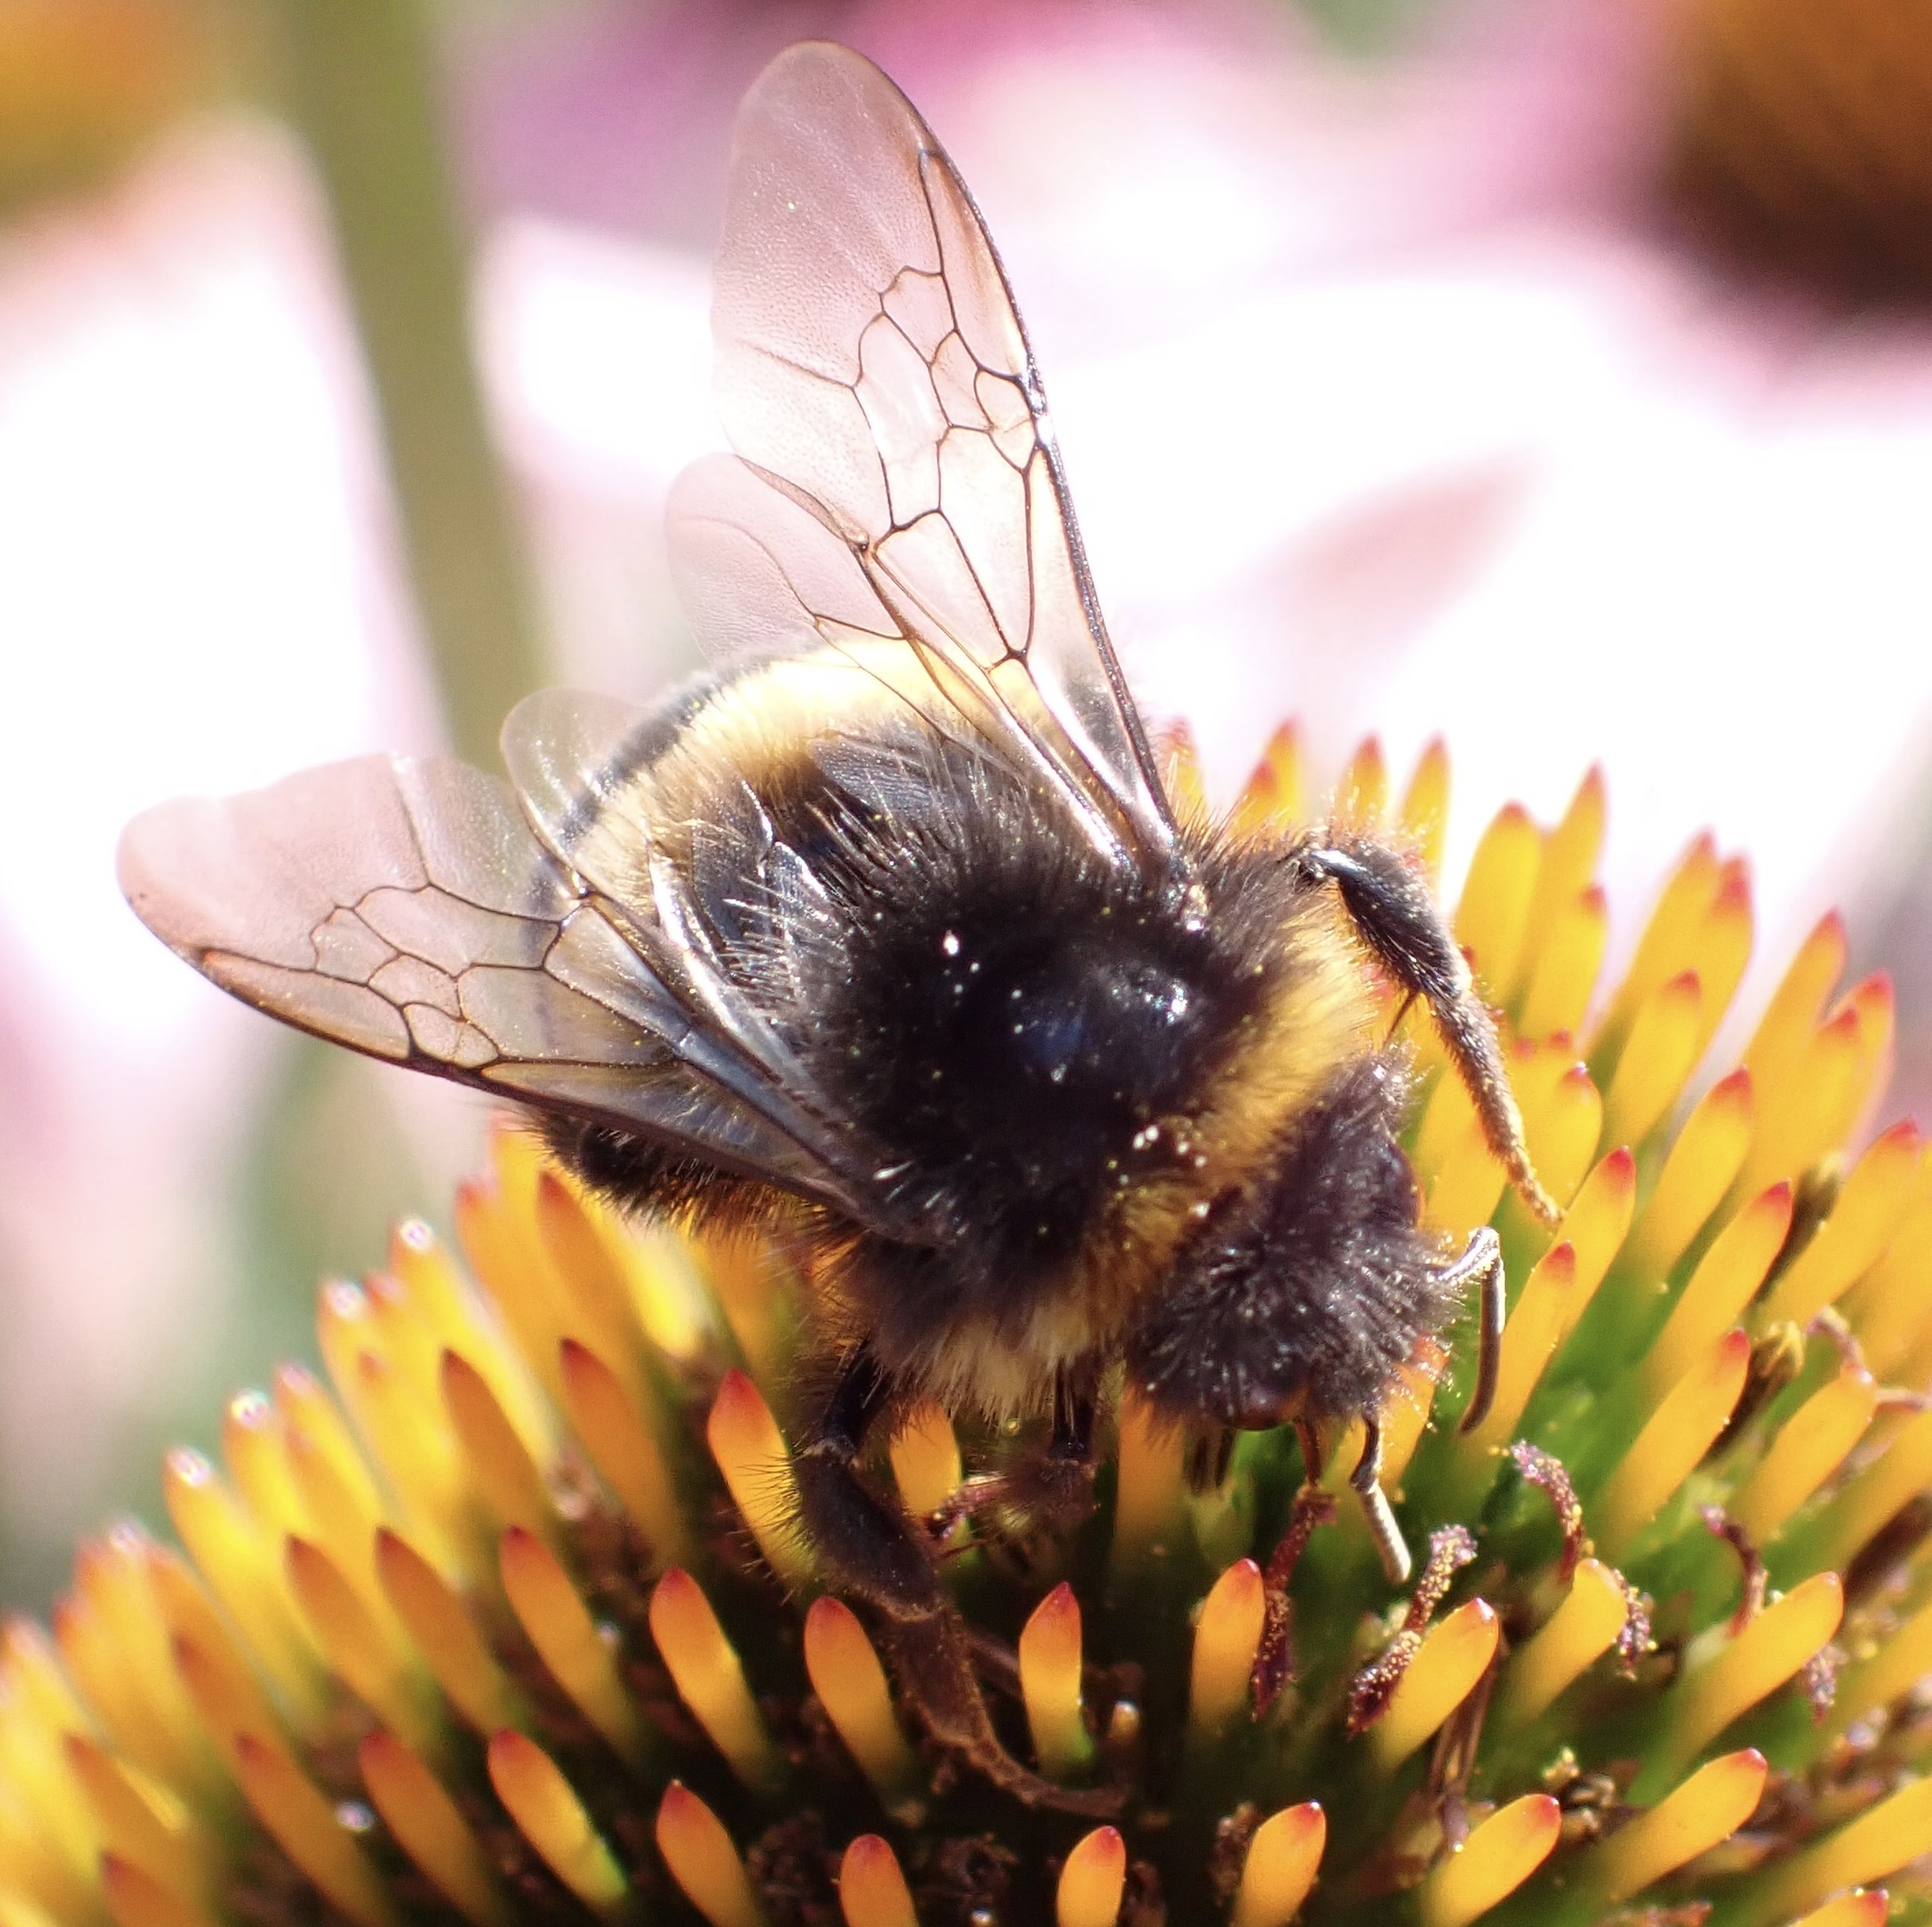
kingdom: Animalia
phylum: Arthropoda
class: Insecta
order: Hymenoptera
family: Apidae
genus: Bombus
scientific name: Bombus terrestris
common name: Buff-tailed bumblebee
